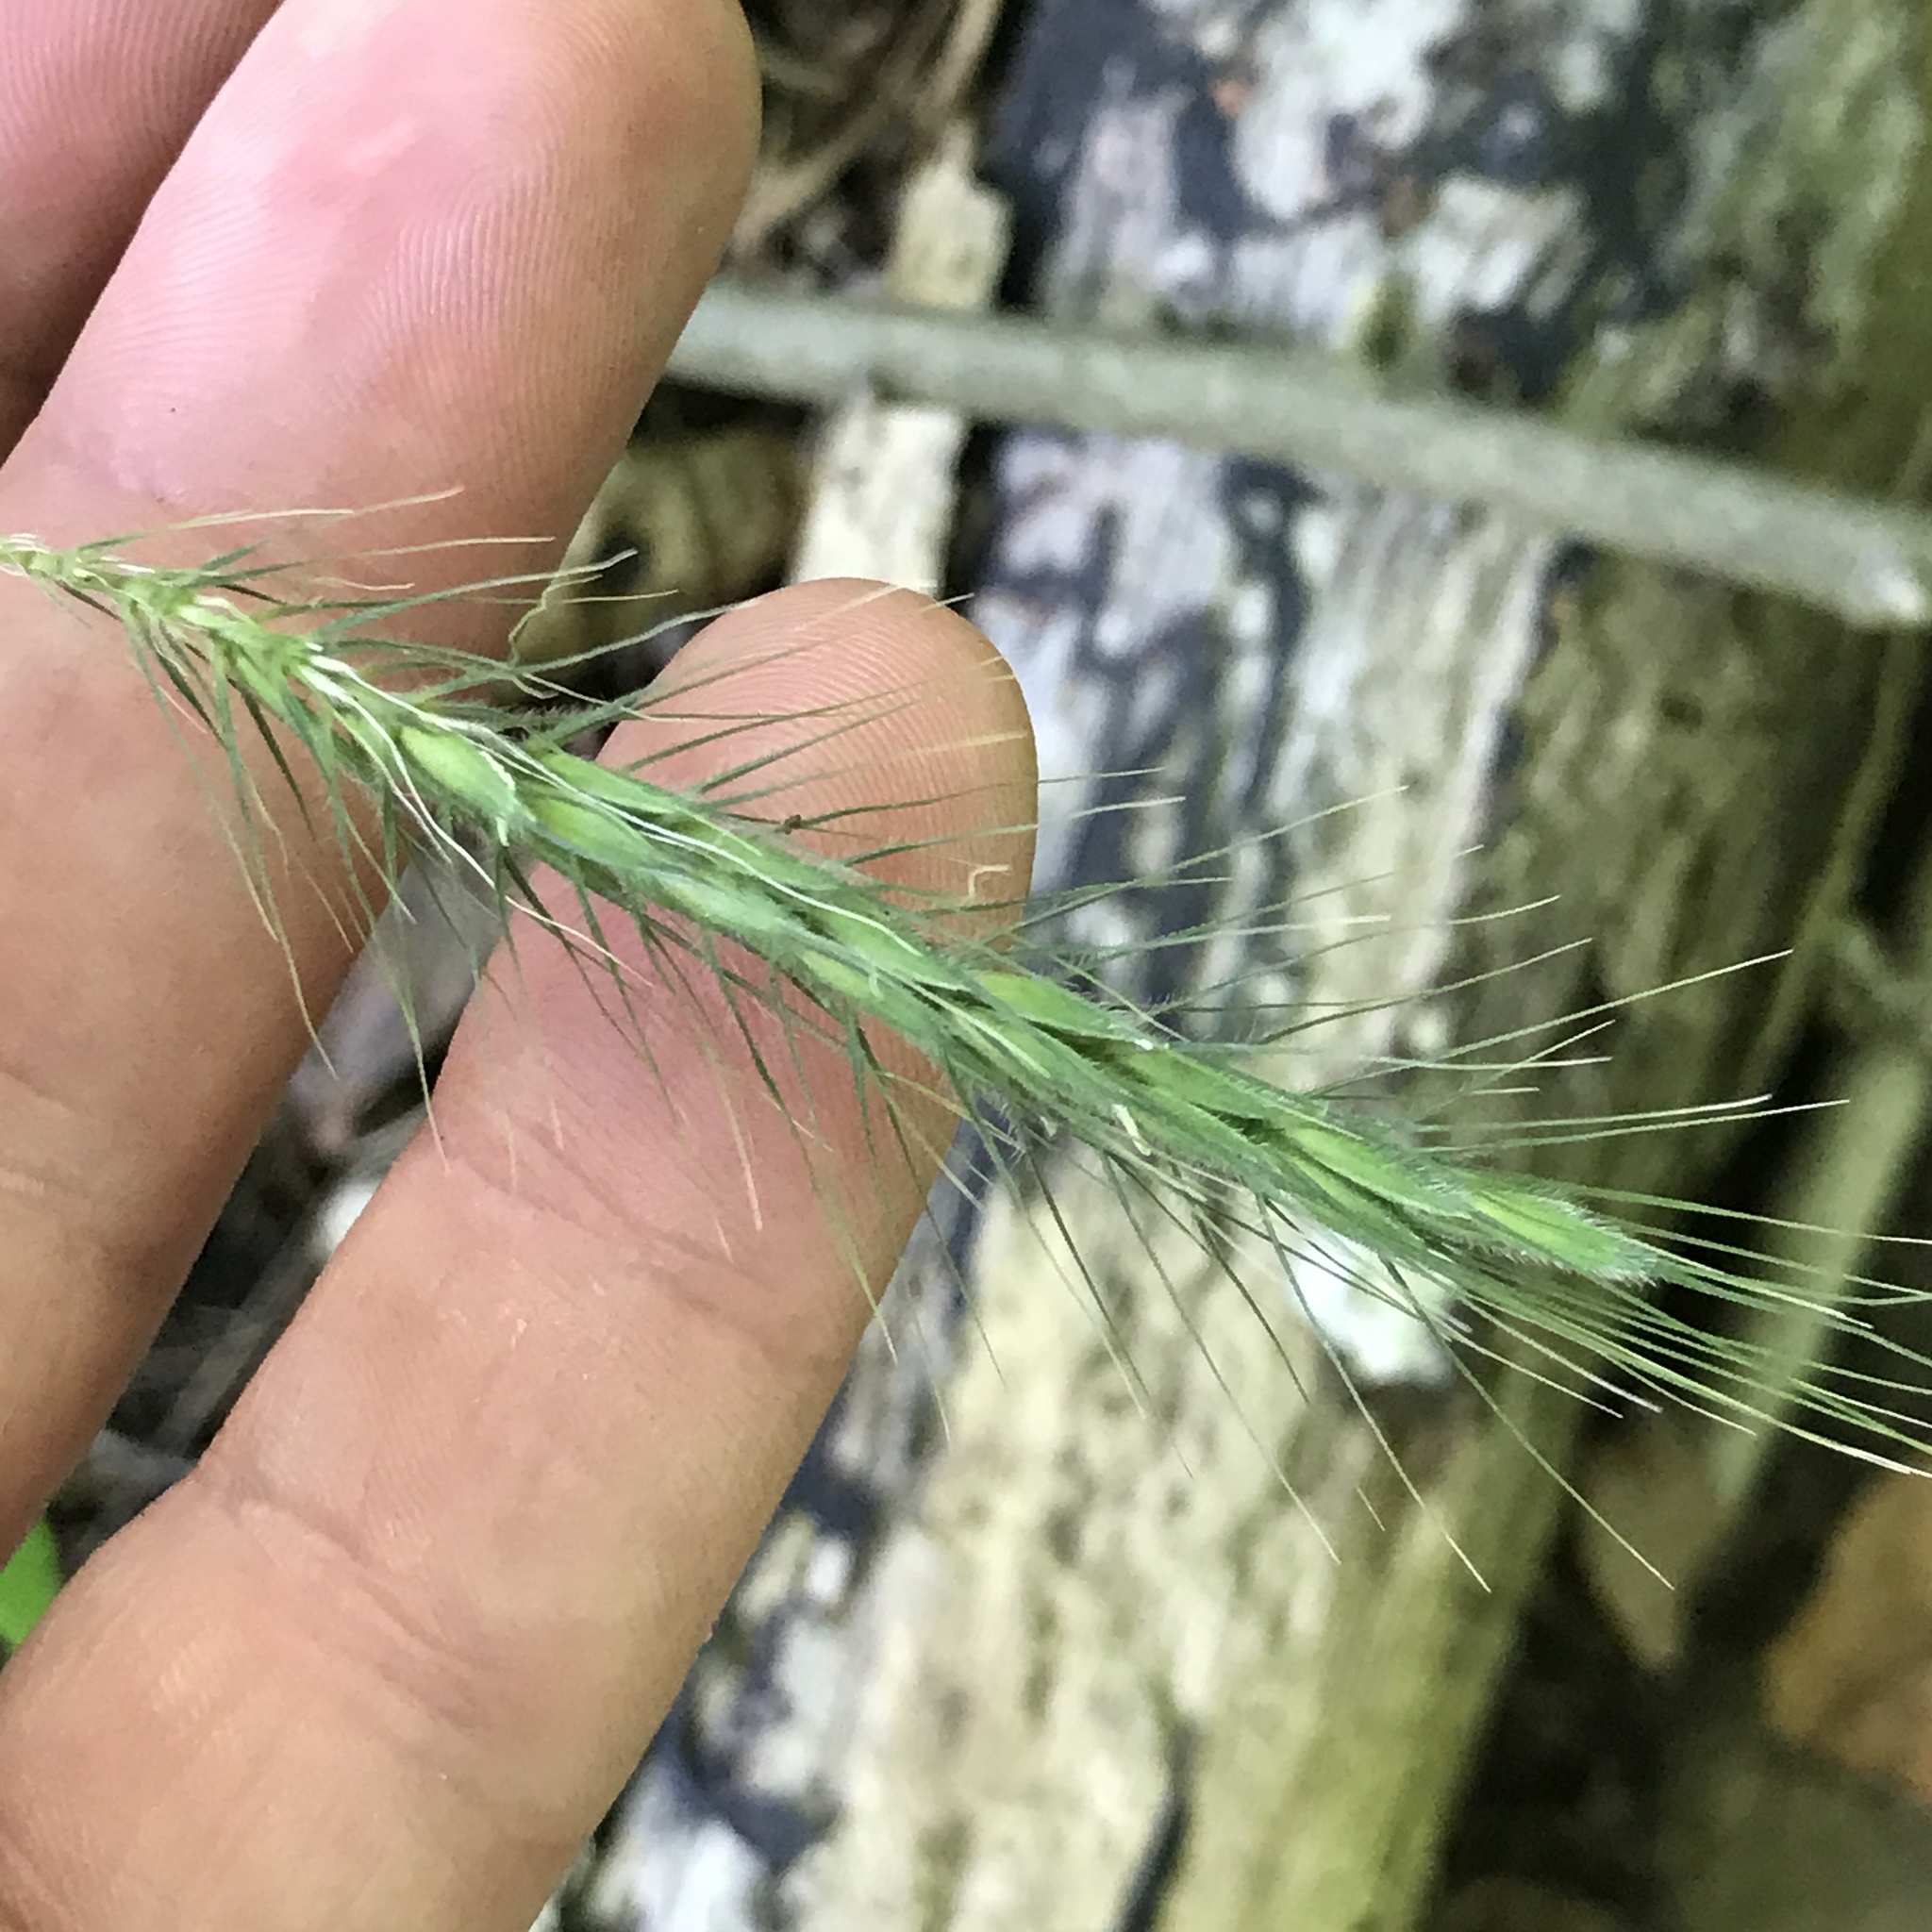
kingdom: Plantae
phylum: Tracheophyta
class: Liliopsida
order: Poales
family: Poaceae
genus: Elymus
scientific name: Elymus villosus
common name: Downy wild rye
